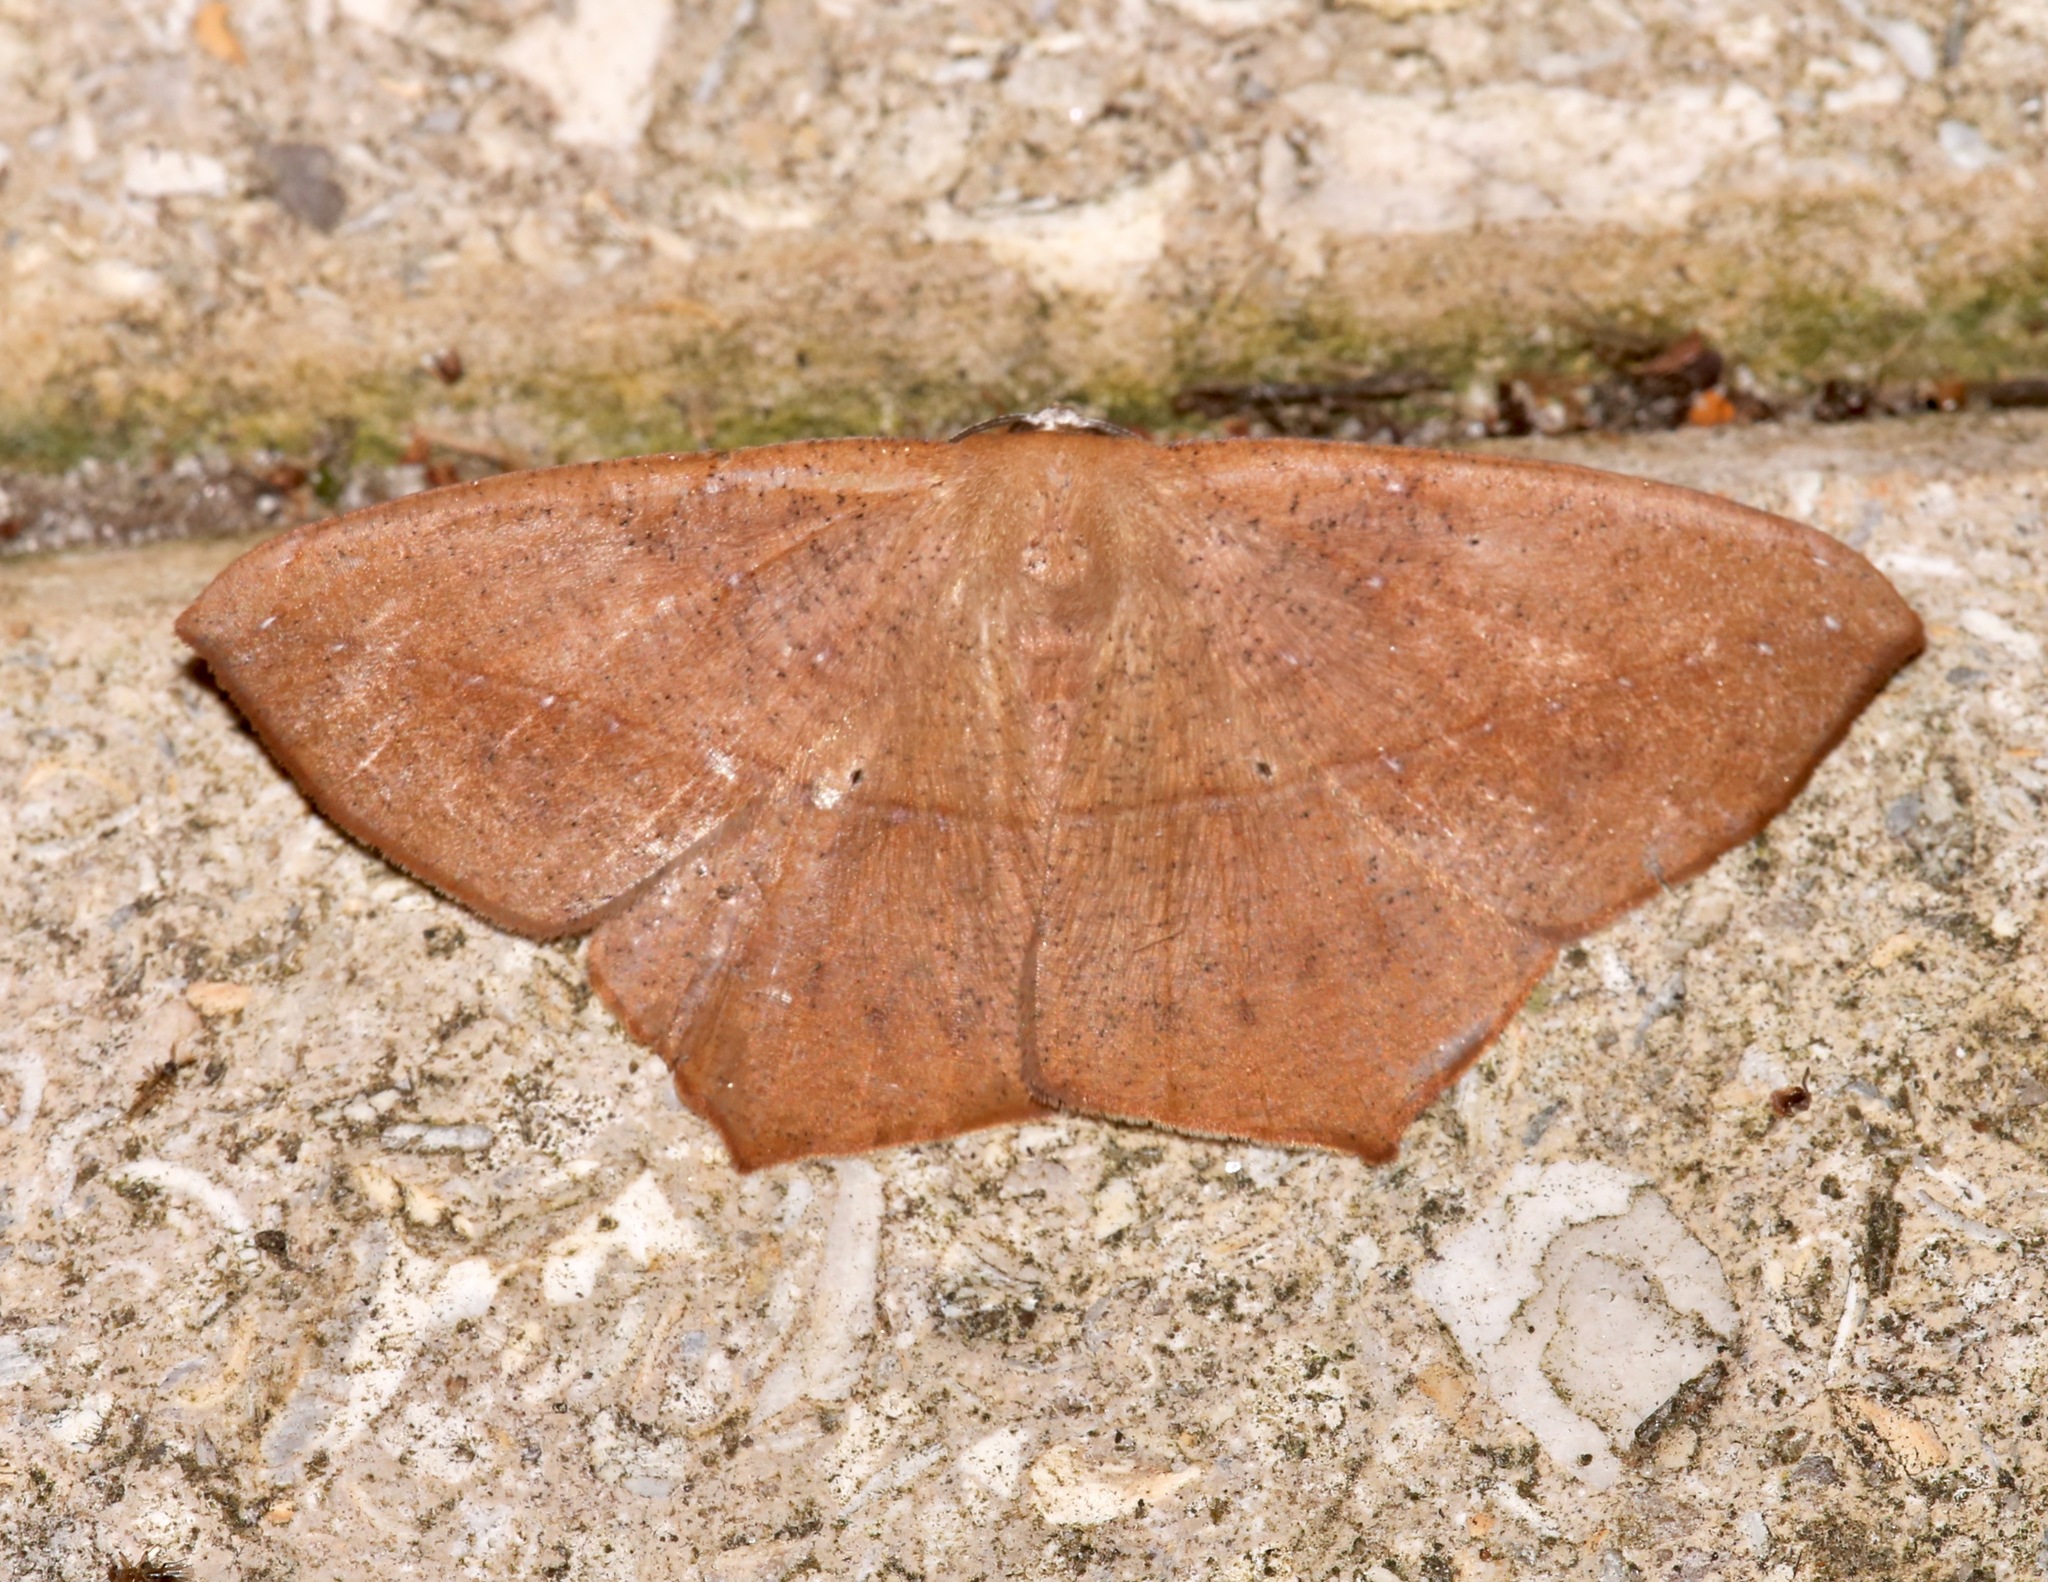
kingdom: Animalia
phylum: Arthropoda
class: Insecta
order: Lepidoptera
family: Geometridae
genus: Prochoerodes
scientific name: Prochoerodes lineola
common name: Large maple spanworm
